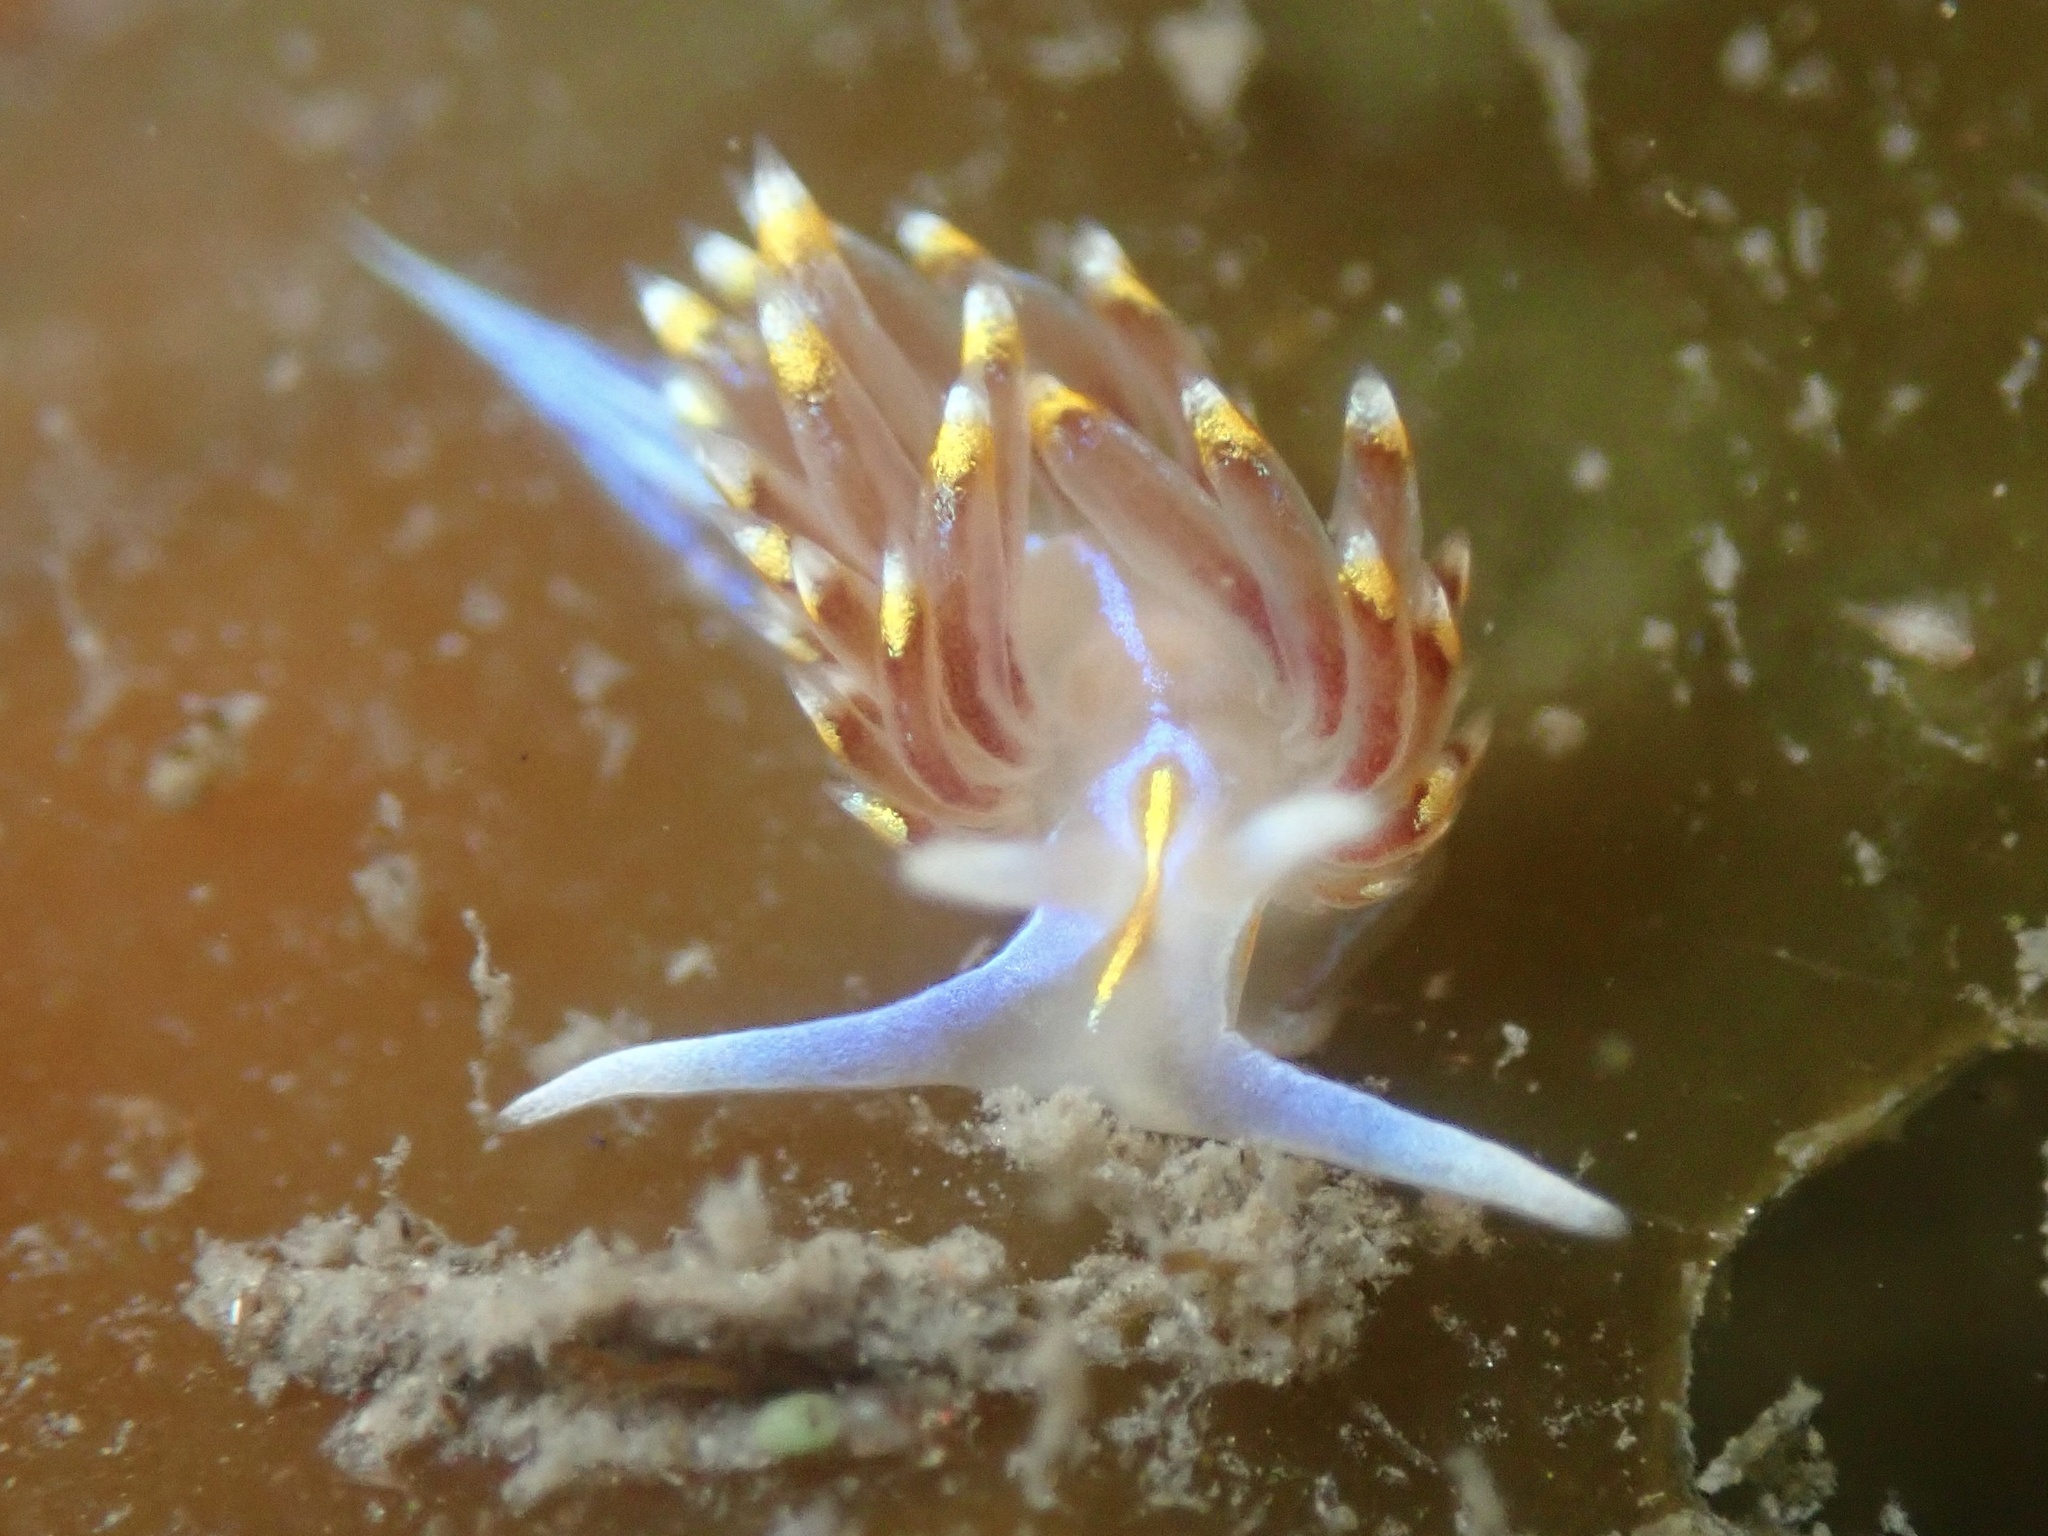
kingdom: Animalia
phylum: Mollusca
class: Gastropoda
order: Nudibranchia
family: Myrrhinidae
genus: Hermissenda
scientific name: Hermissenda opalescens
